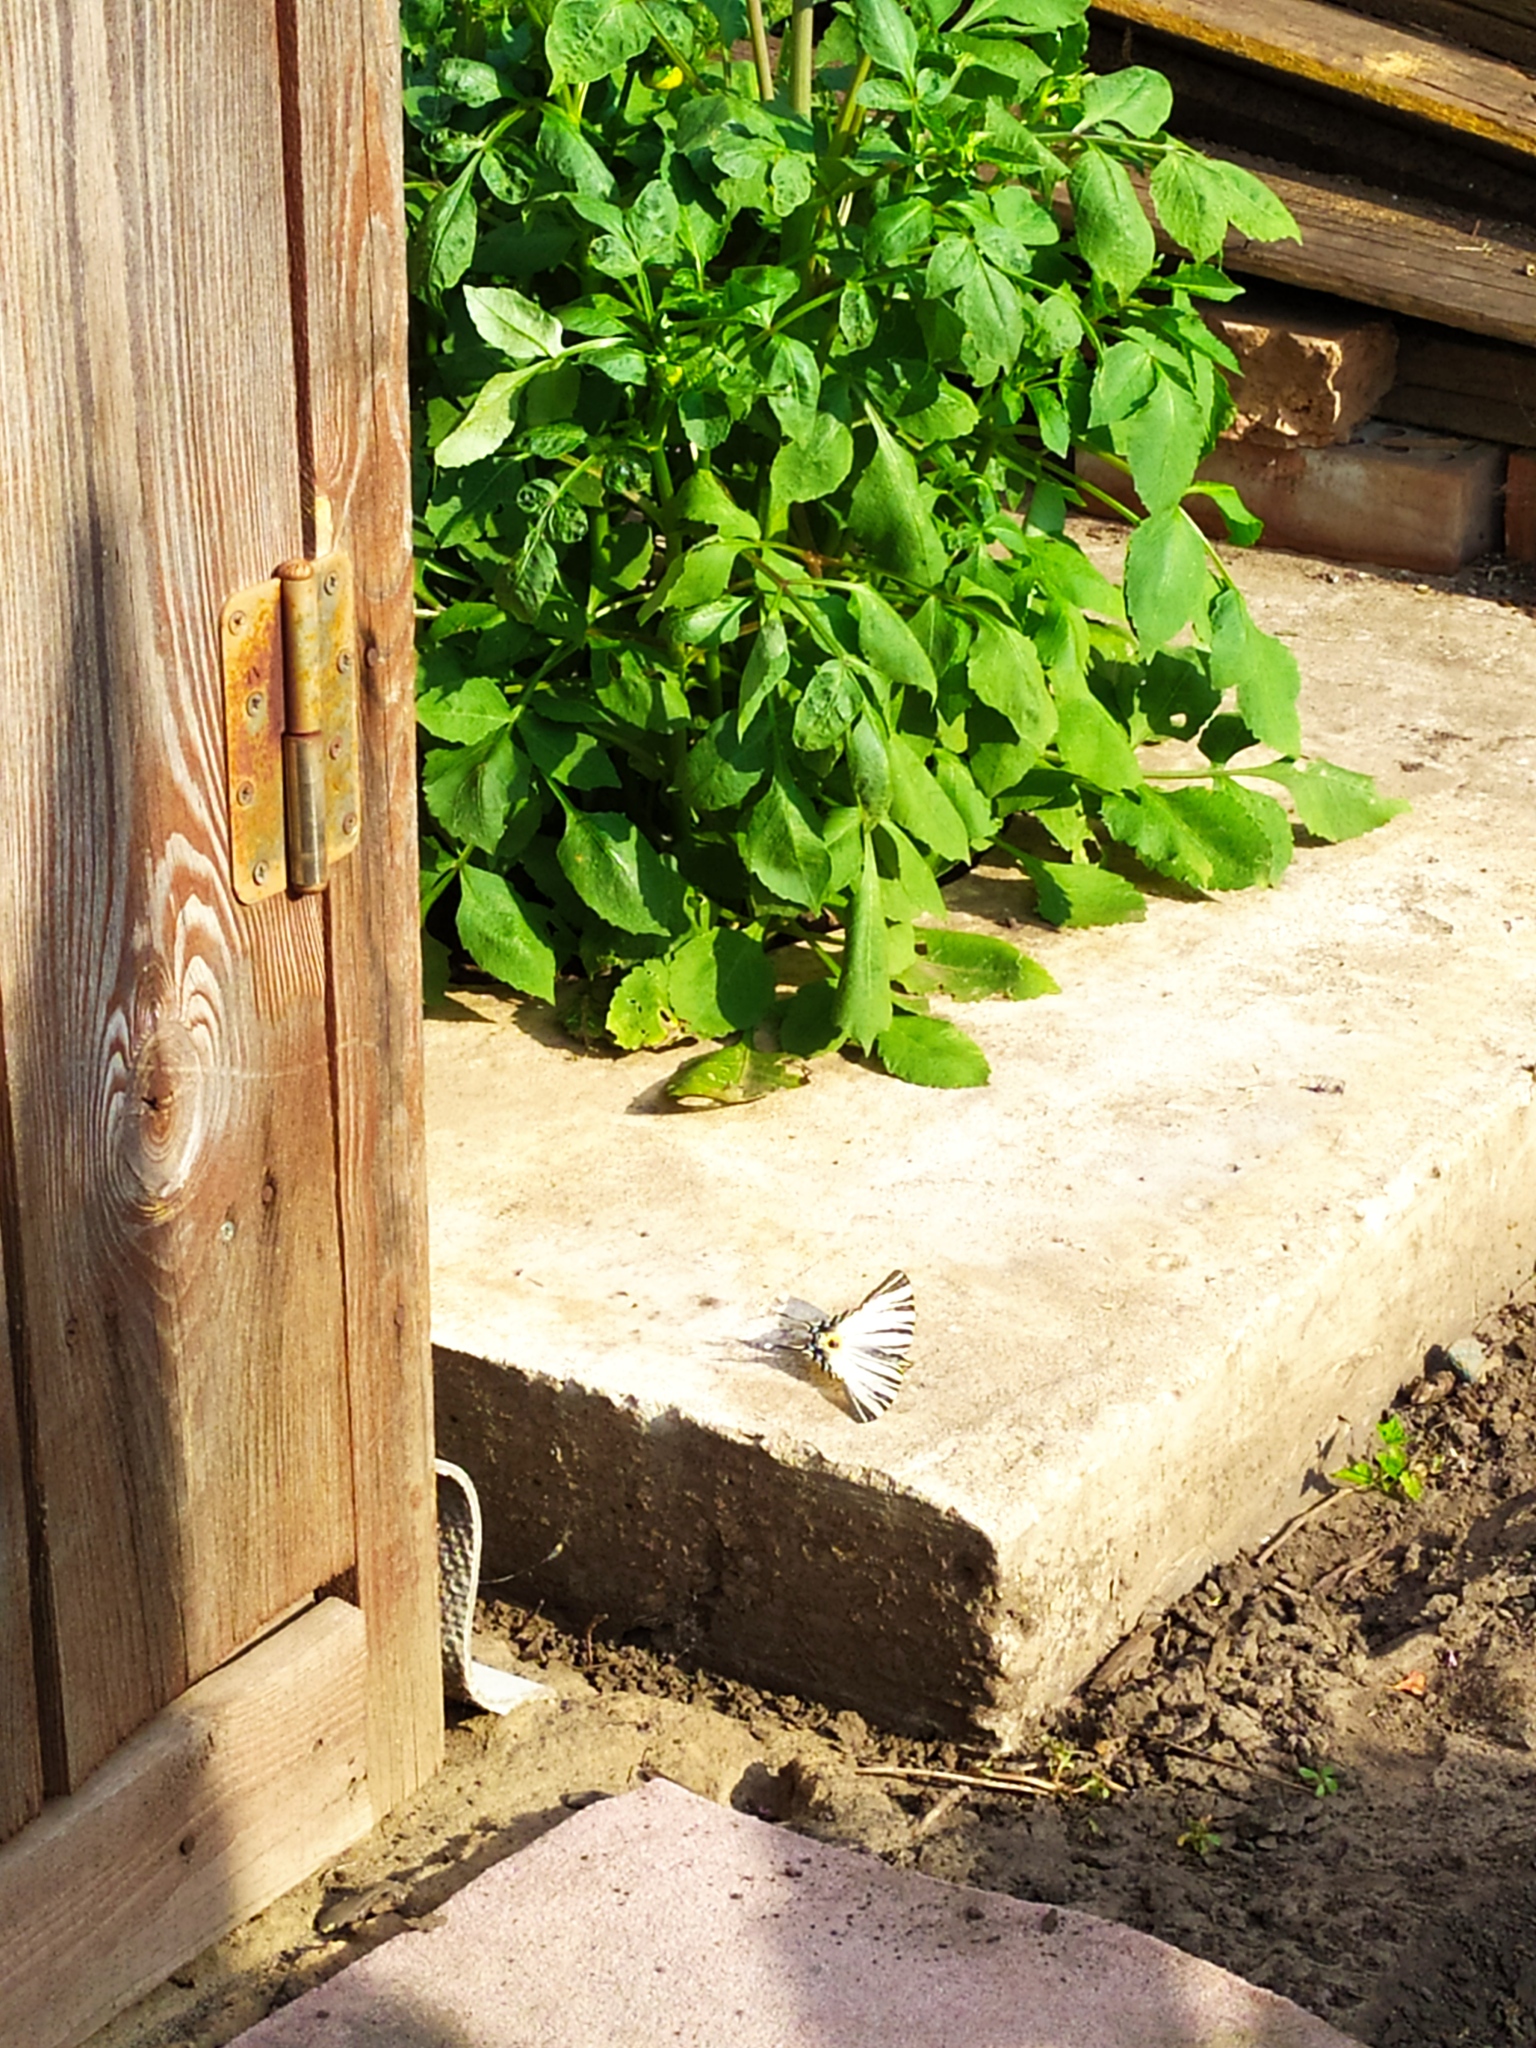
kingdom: Animalia
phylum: Arthropoda
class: Insecta
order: Lepidoptera
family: Papilionidae
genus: Iphiclides
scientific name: Iphiclides podalirius
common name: Scarce swallowtail
